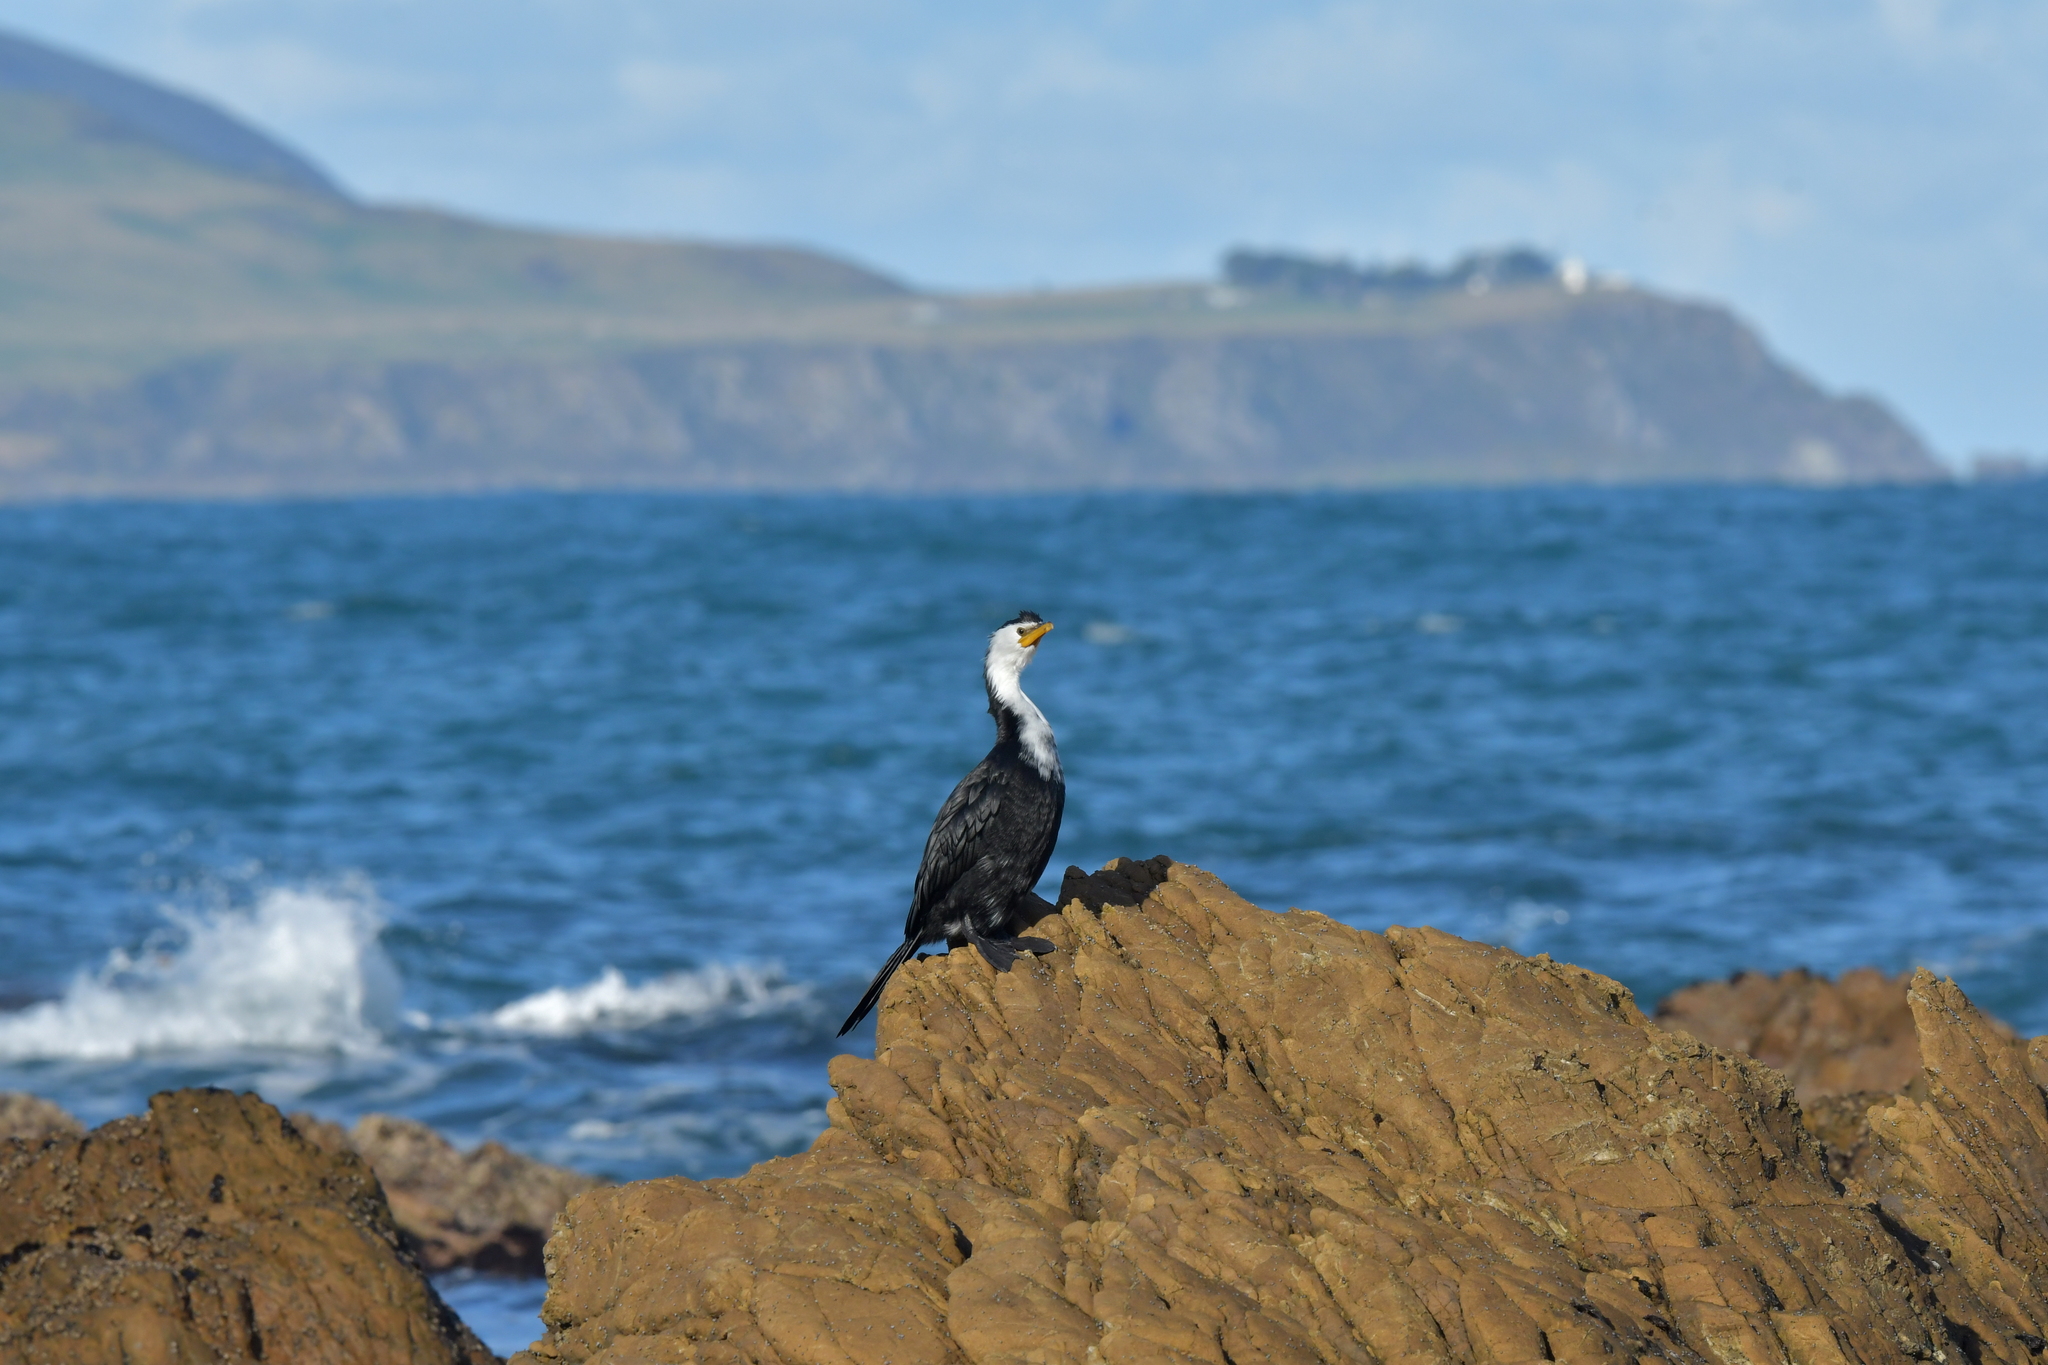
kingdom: Animalia
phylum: Chordata
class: Aves
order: Suliformes
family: Phalacrocoracidae
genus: Microcarbo
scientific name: Microcarbo melanoleucos
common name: Little pied cormorant
